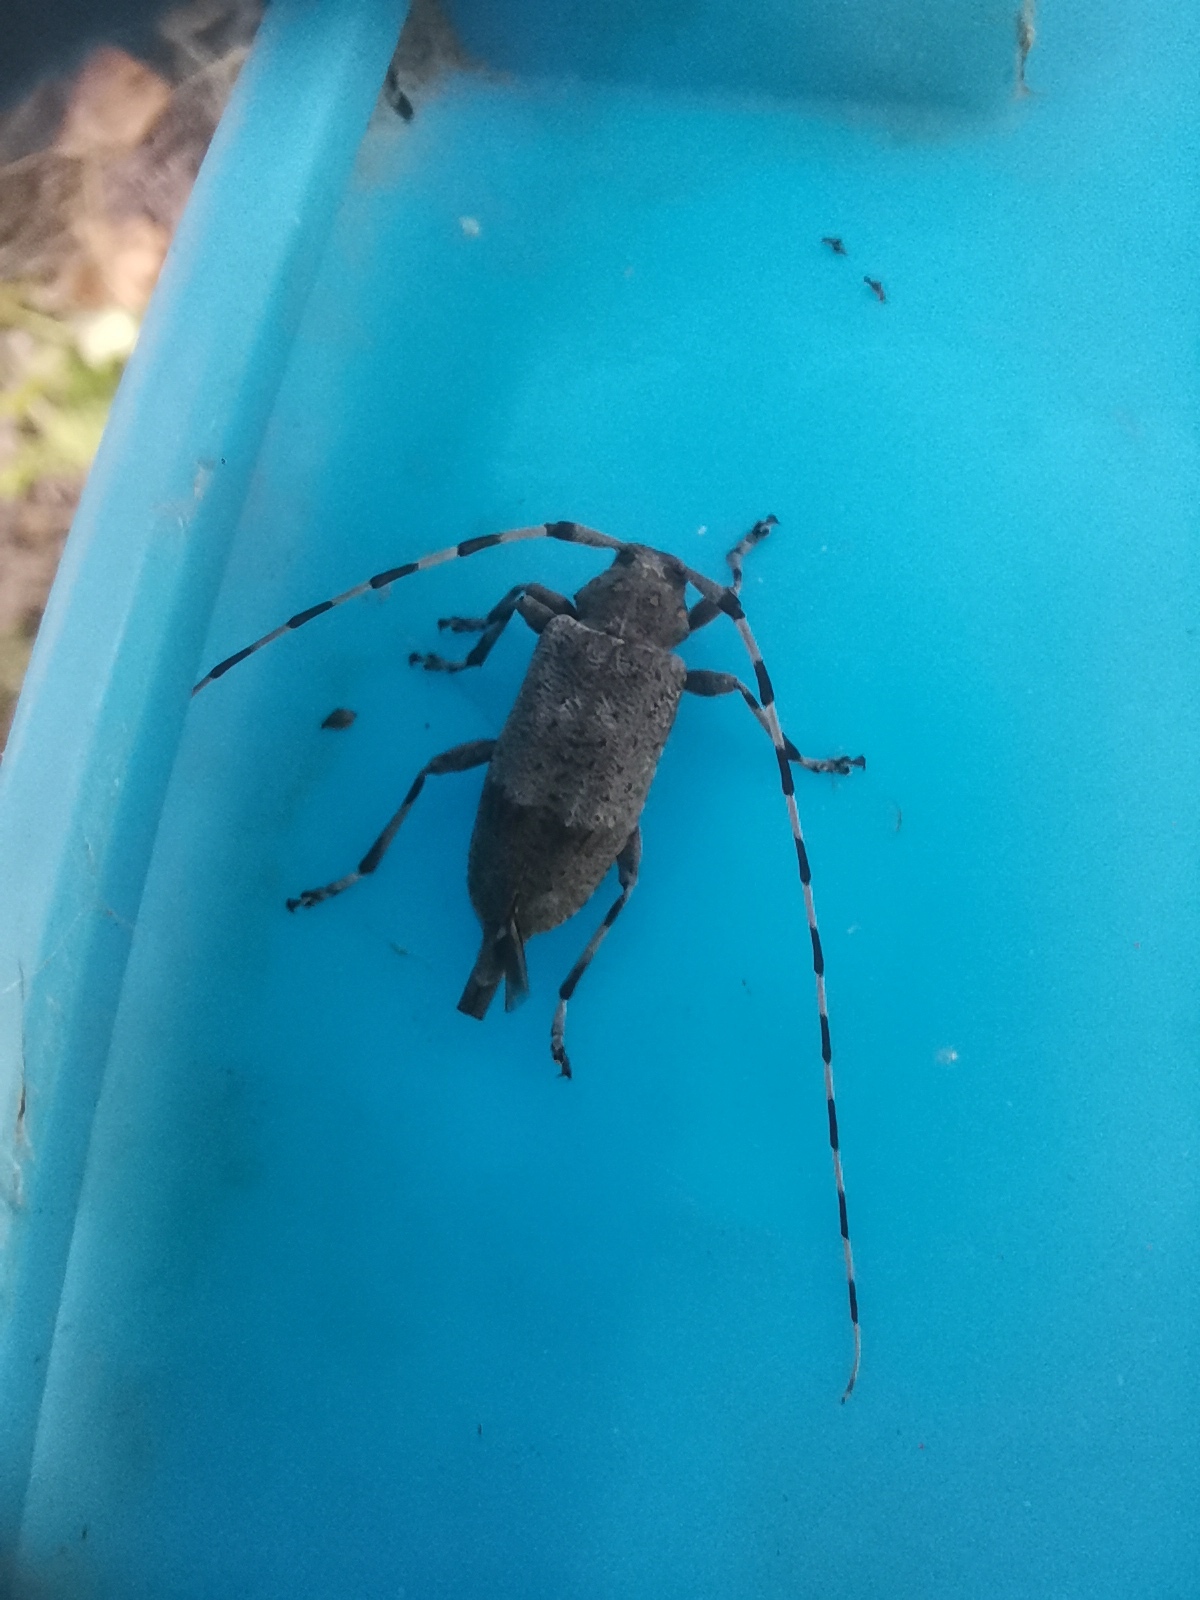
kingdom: Animalia
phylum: Arthropoda
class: Insecta
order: Coleoptera
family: Cerambycidae
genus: Acanthocinus
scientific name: Acanthocinus aedilis
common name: Timberman beetle
